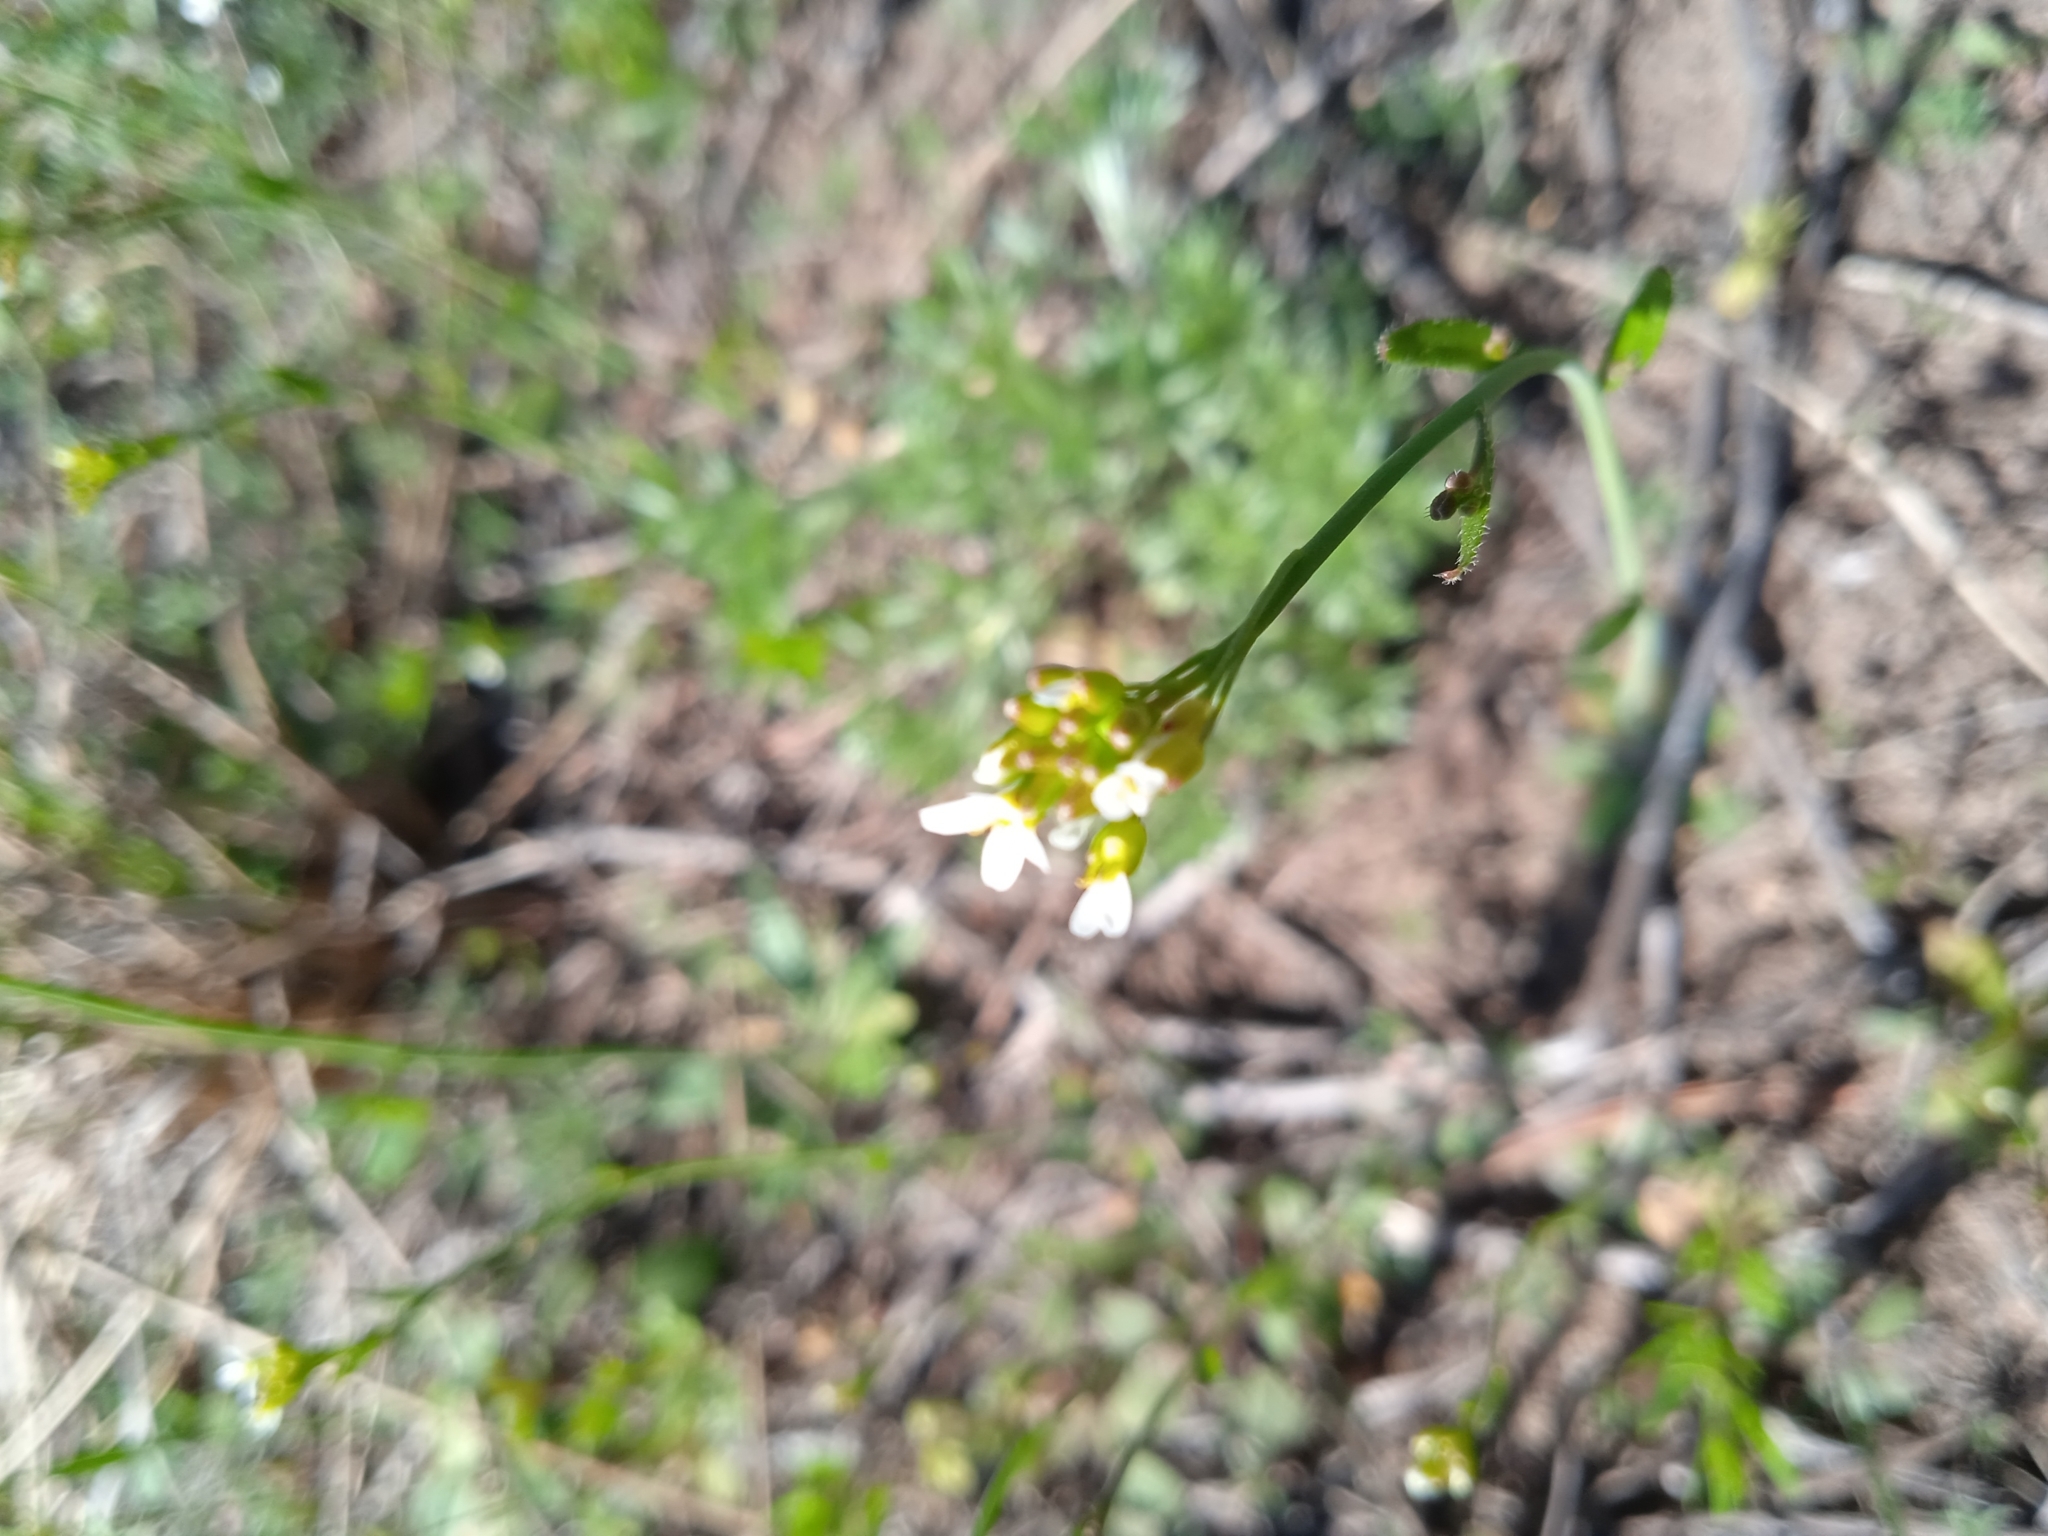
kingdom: Plantae
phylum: Tracheophyta
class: Magnoliopsida
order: Brassicales
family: Brassicaceae
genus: Arabidopsis
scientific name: Arabidopsis thaliana
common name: Thale cress
